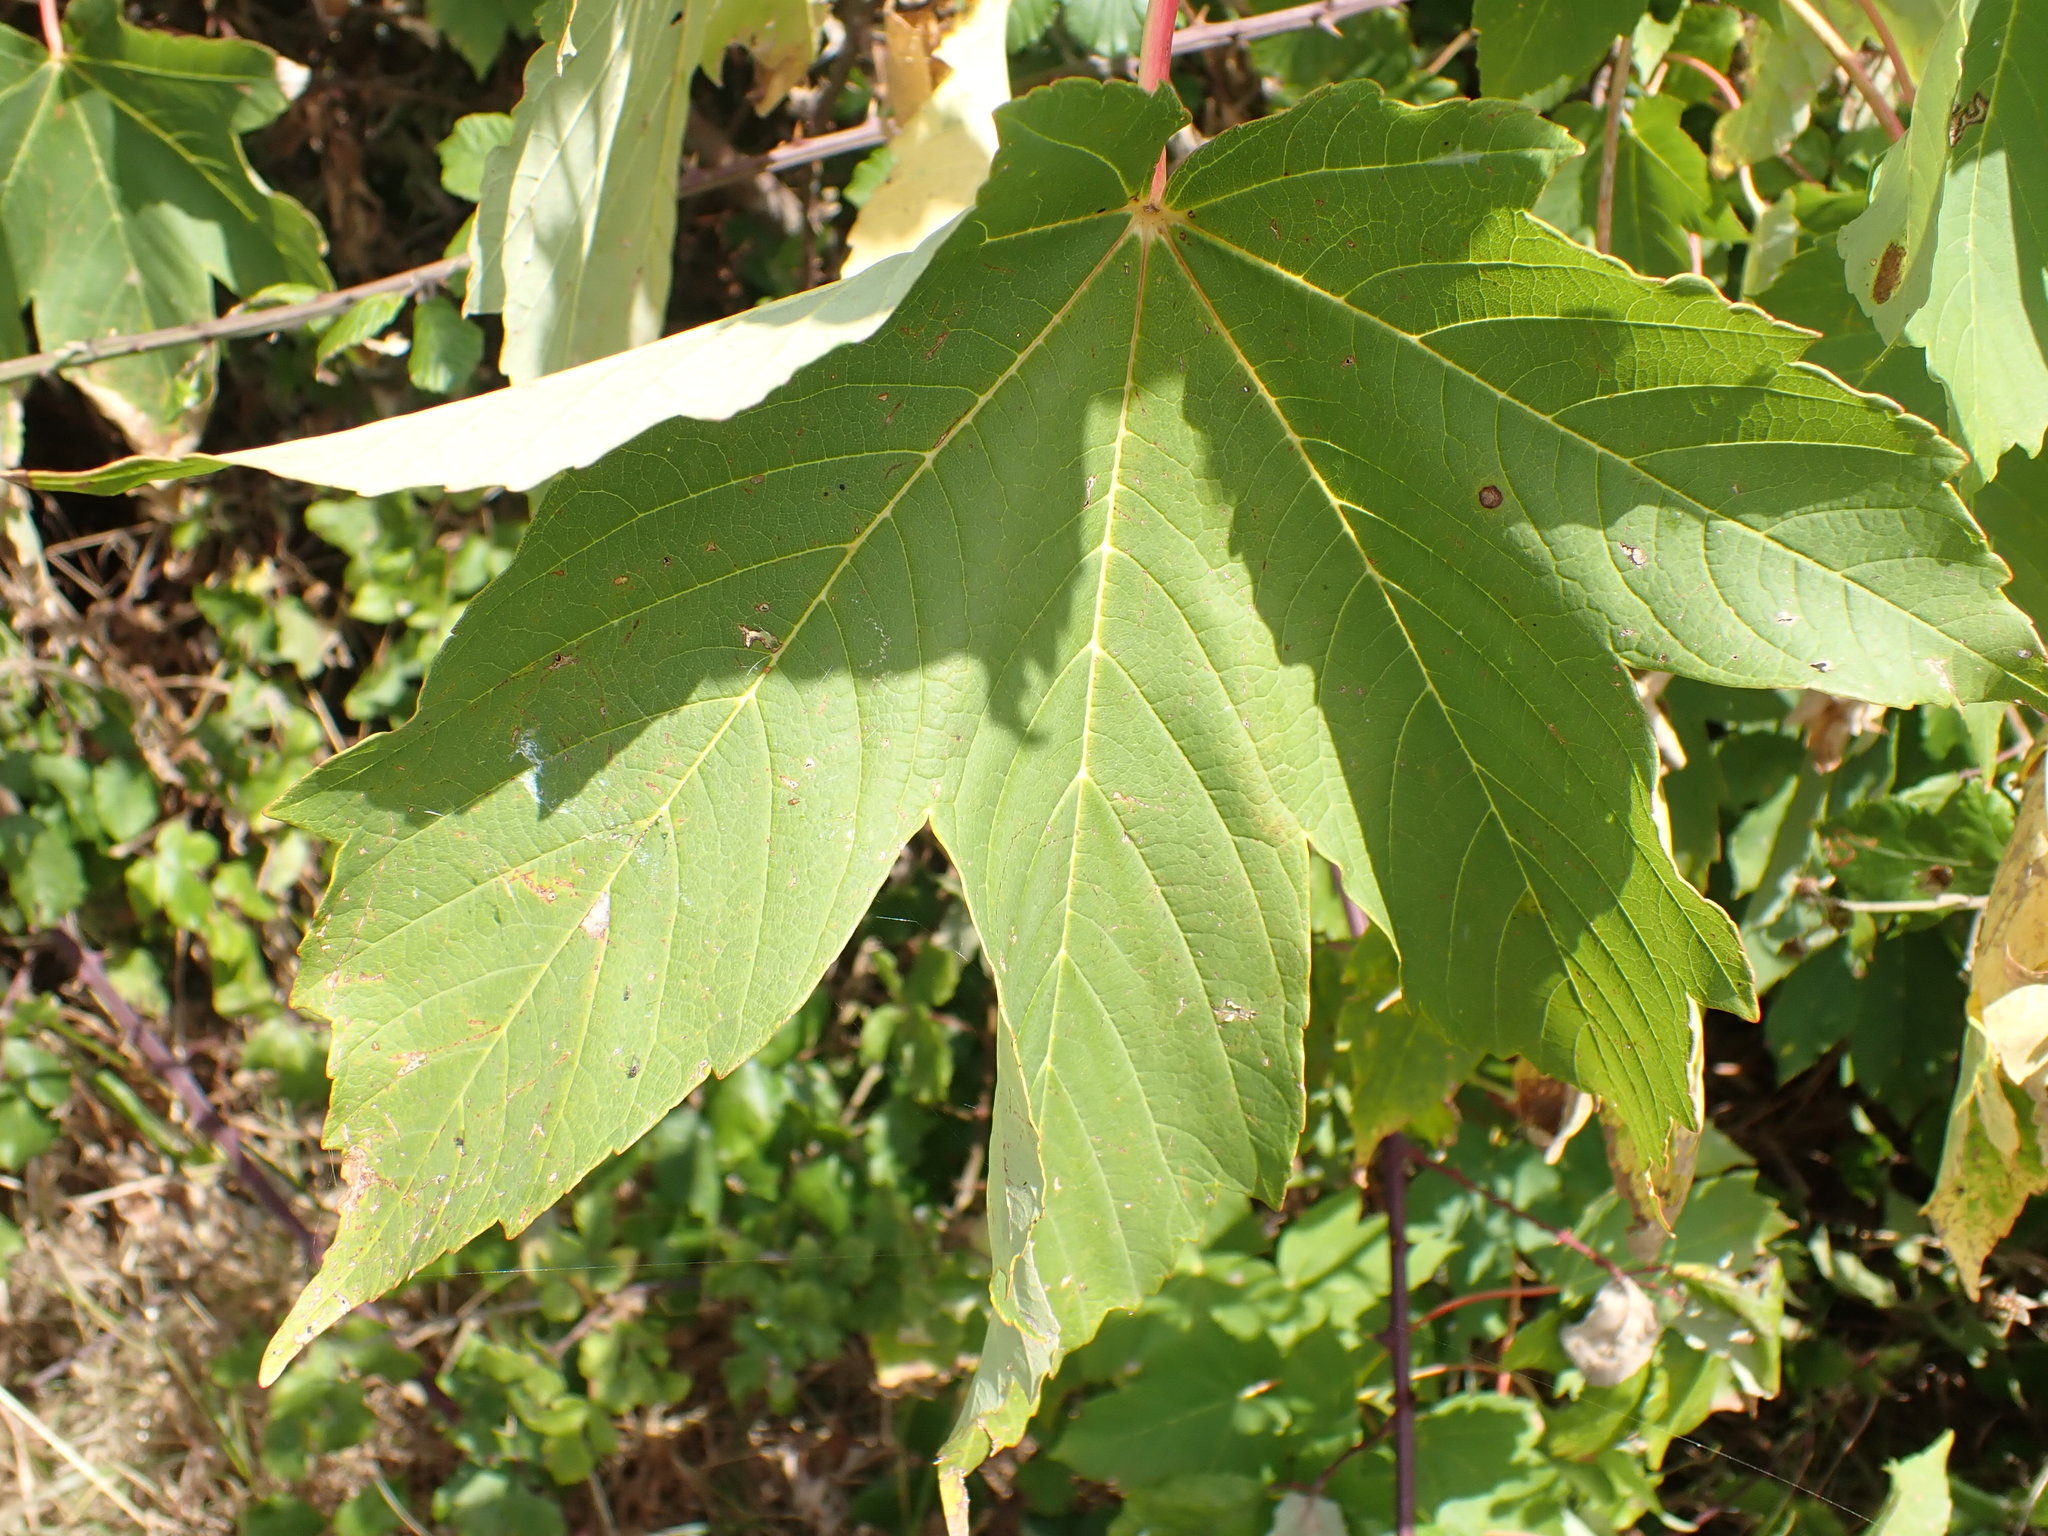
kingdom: Plantae
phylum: Tracheophyta
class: Magnoliopsida
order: Sapindales
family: Sapindaceae
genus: Acer
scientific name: Acer pseudoplatanus
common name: Sycamore
